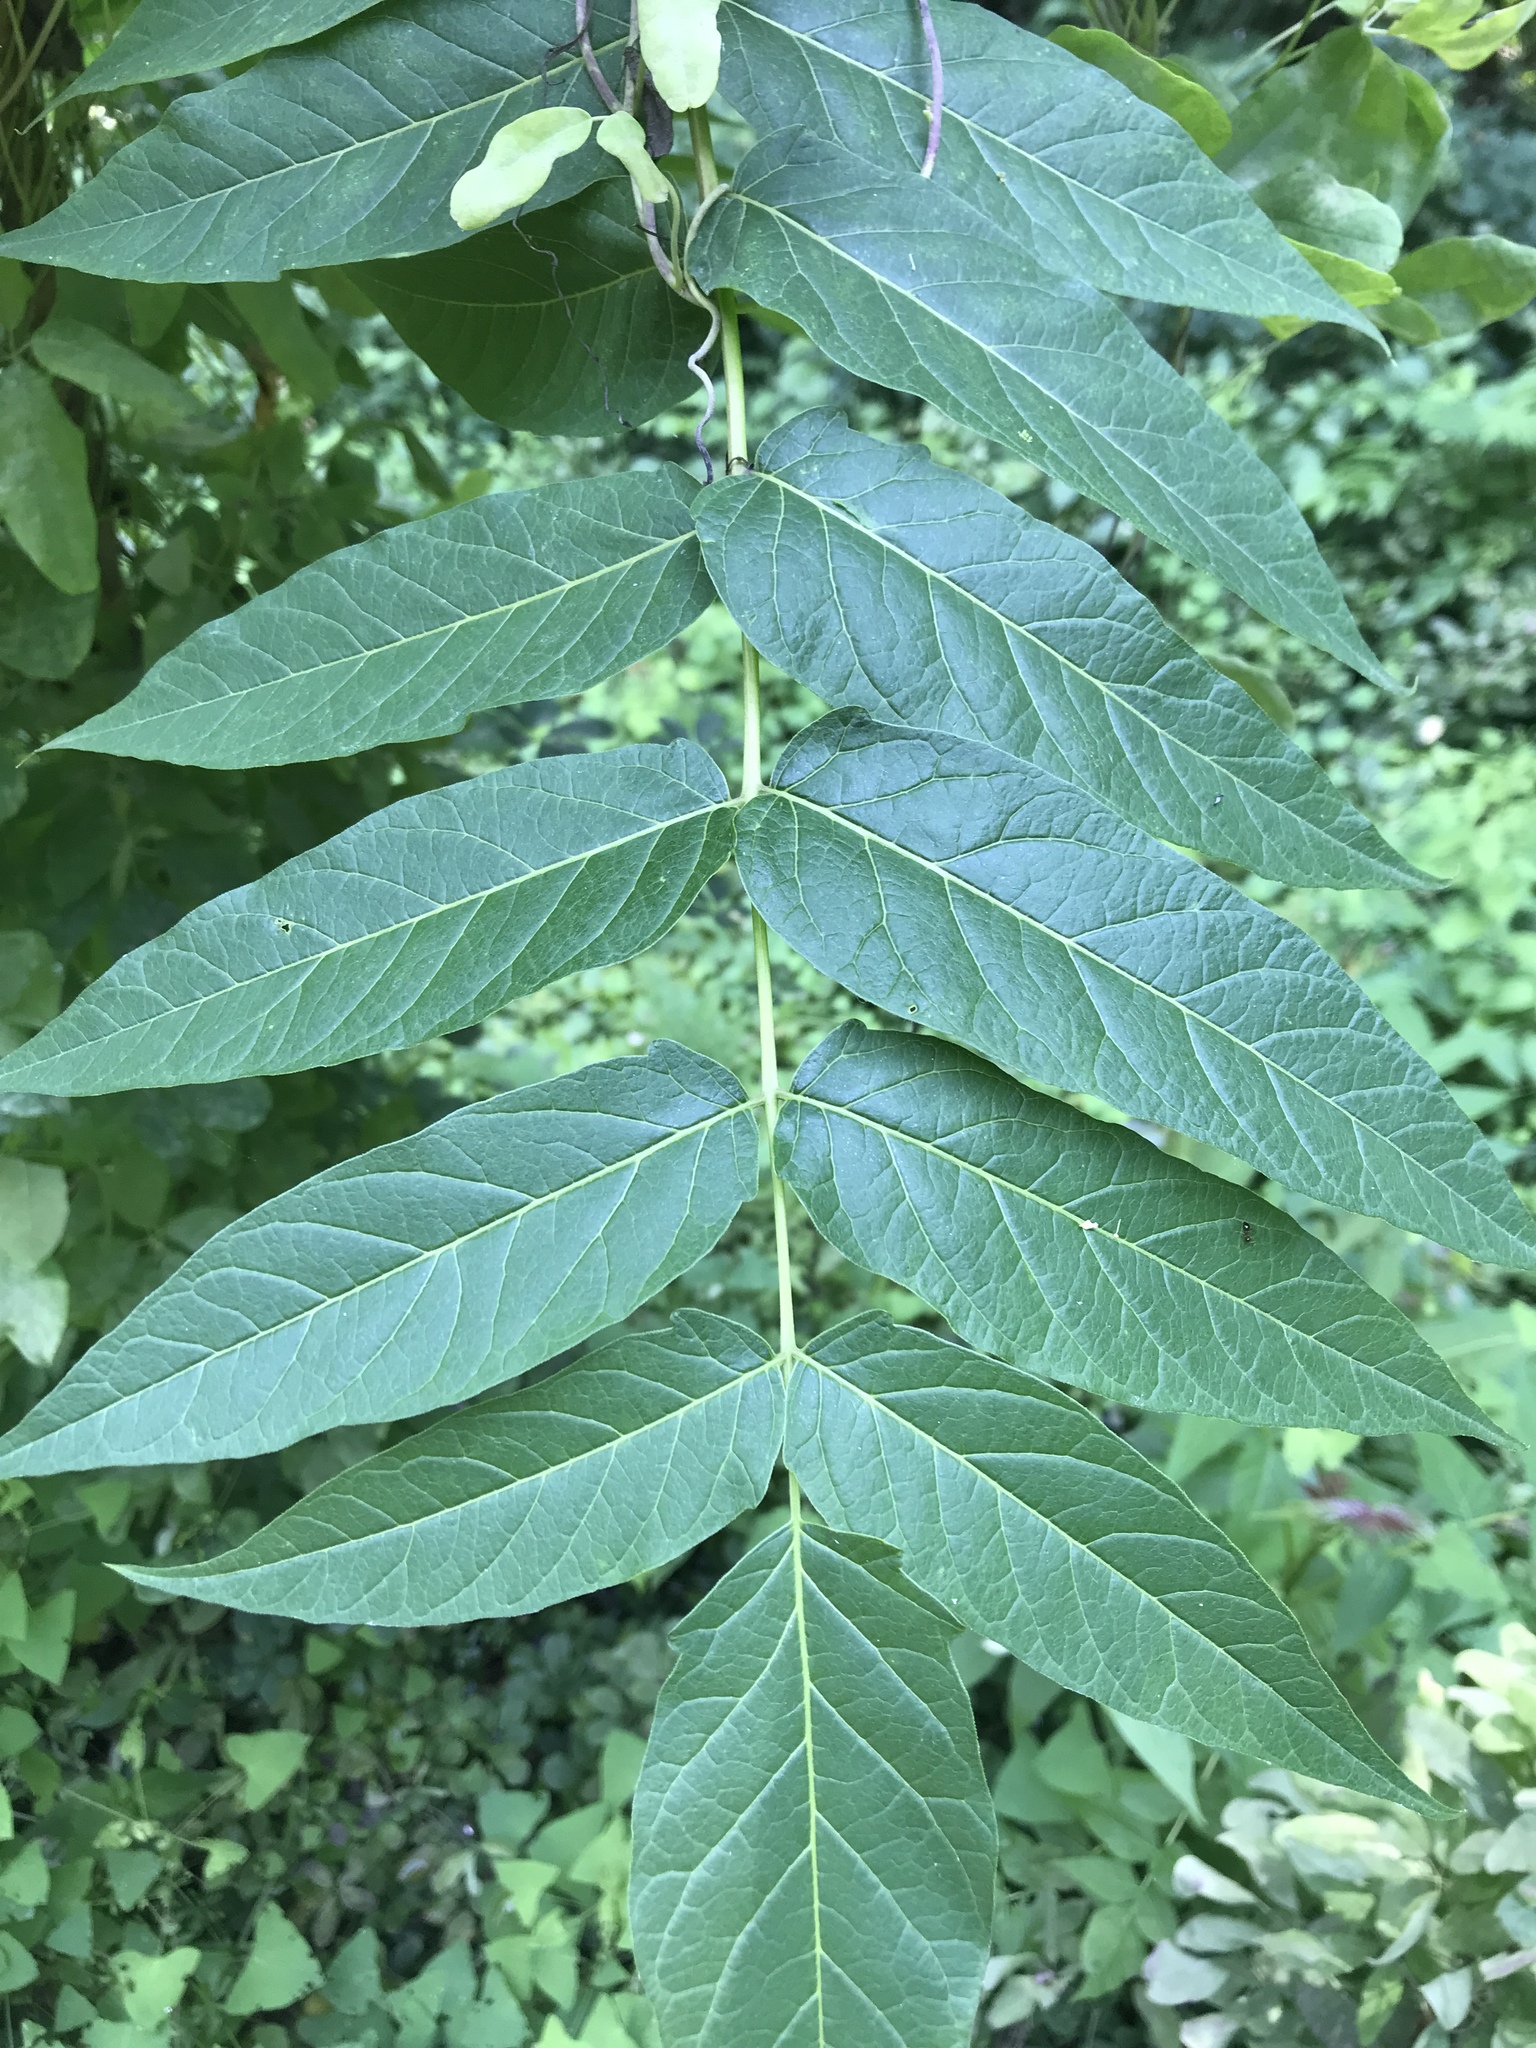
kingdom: Plantae
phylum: Tracheophyta
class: Magnoliopsida
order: Sapindales
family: Simaroubaceae
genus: Ailanthus
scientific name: Ailanthus altissima
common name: Tree-of-heaven
